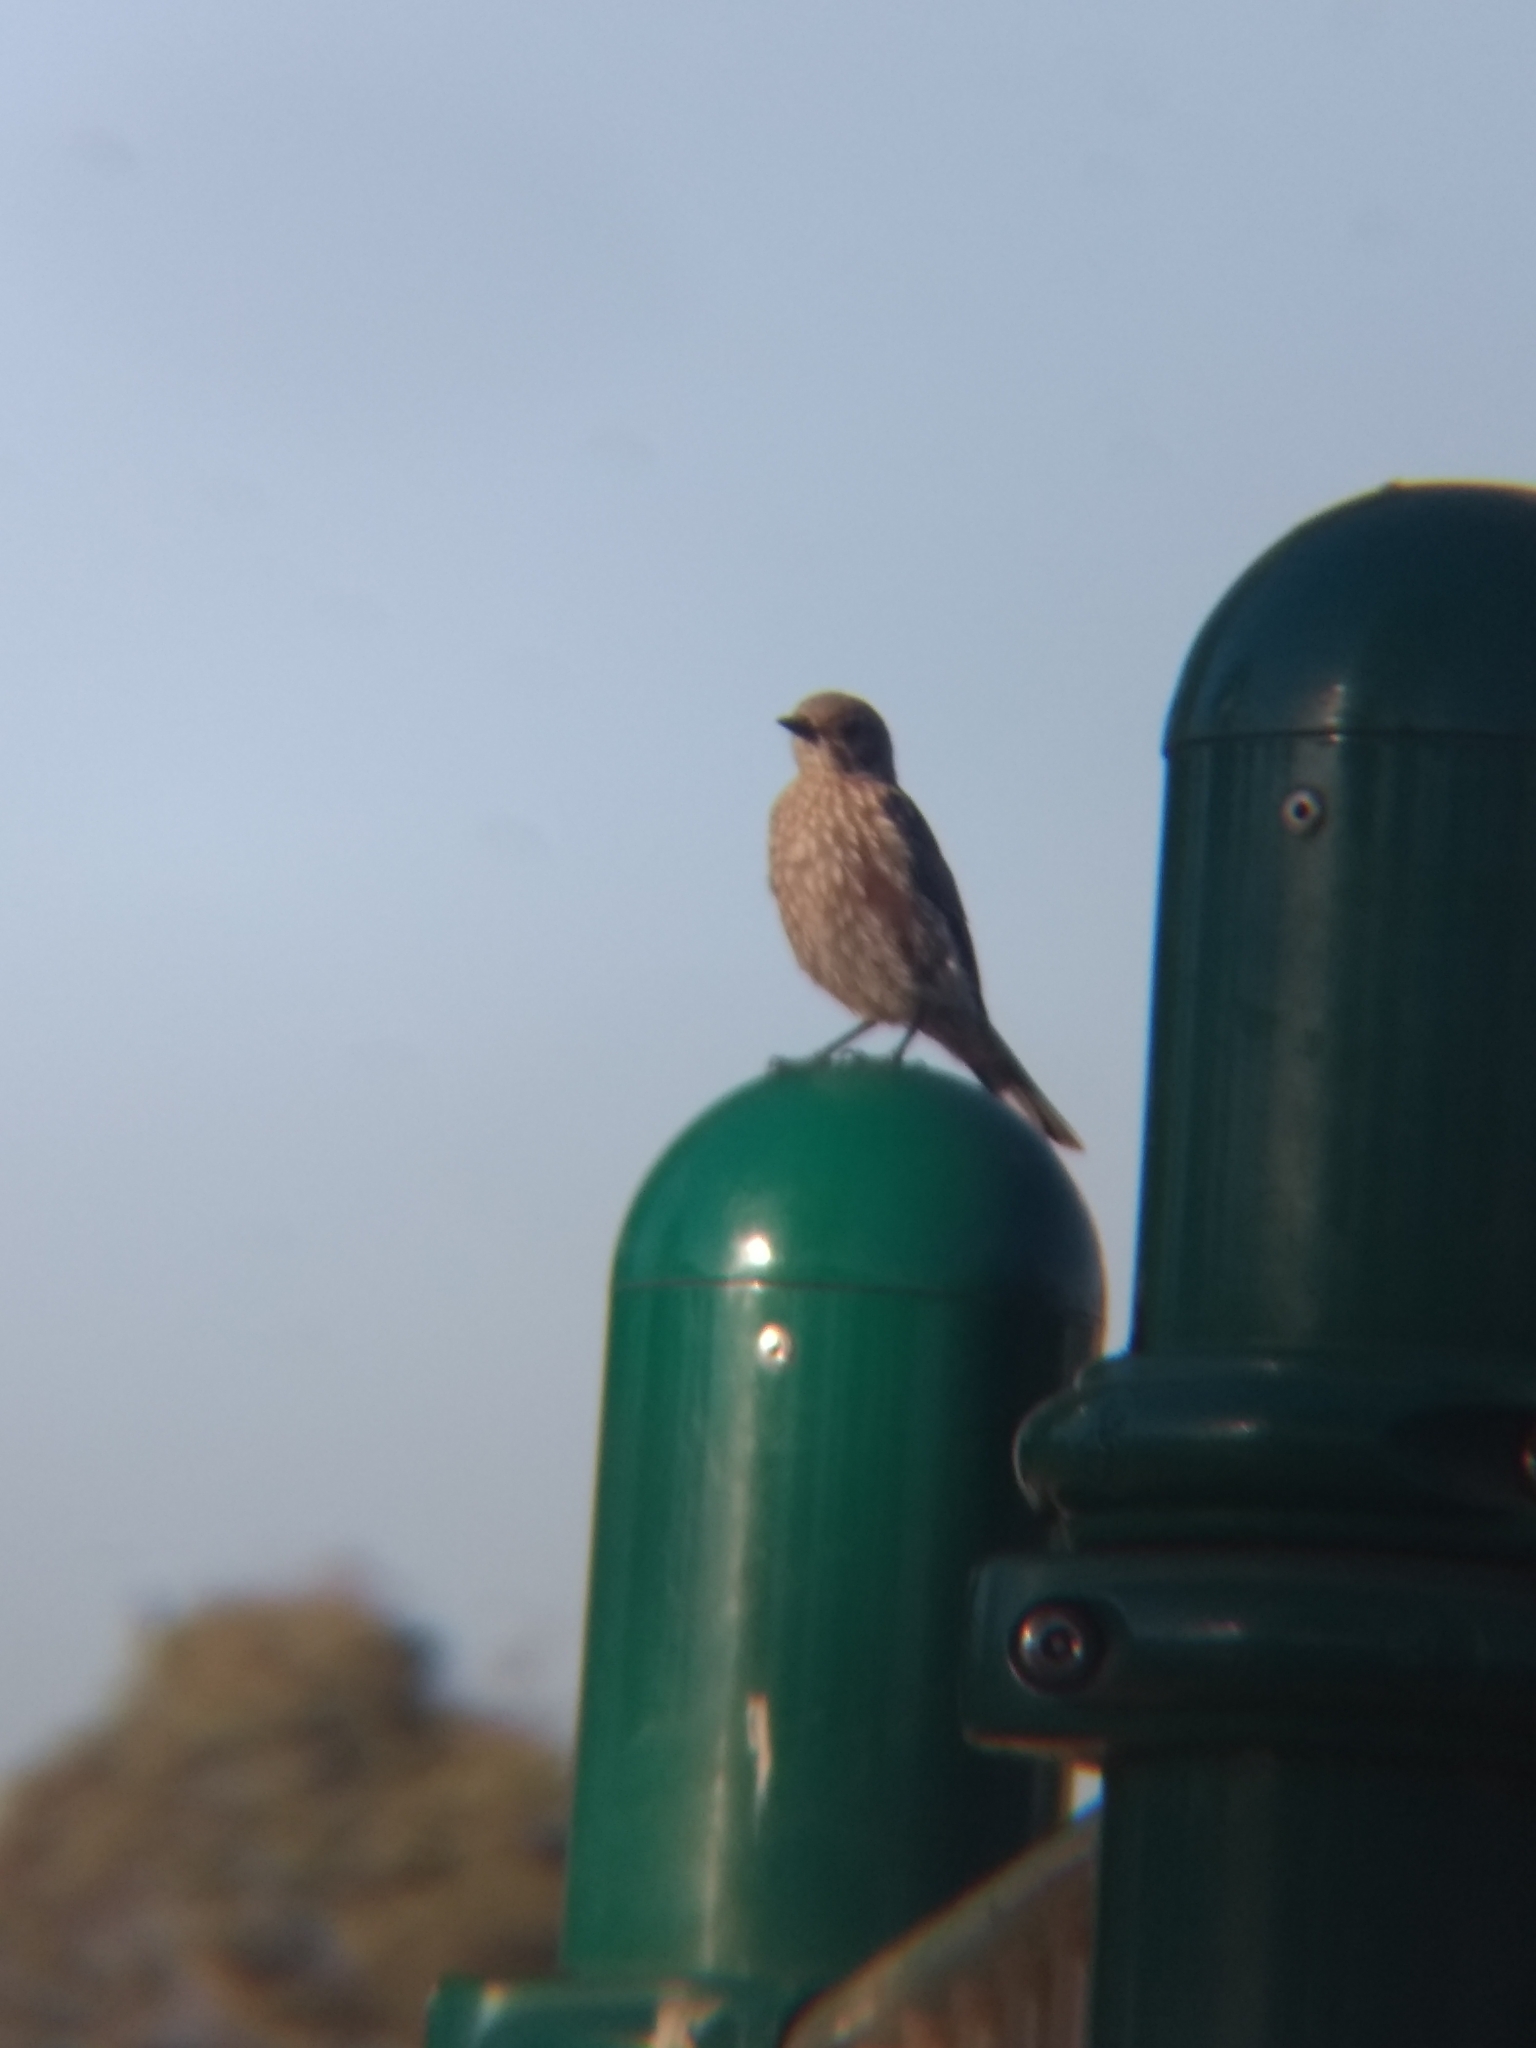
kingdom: Animalia
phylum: Chordata
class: Aves
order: Passeriformes
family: Turdidae
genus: Sialia
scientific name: Sialia mexicana
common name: Western bluebird
